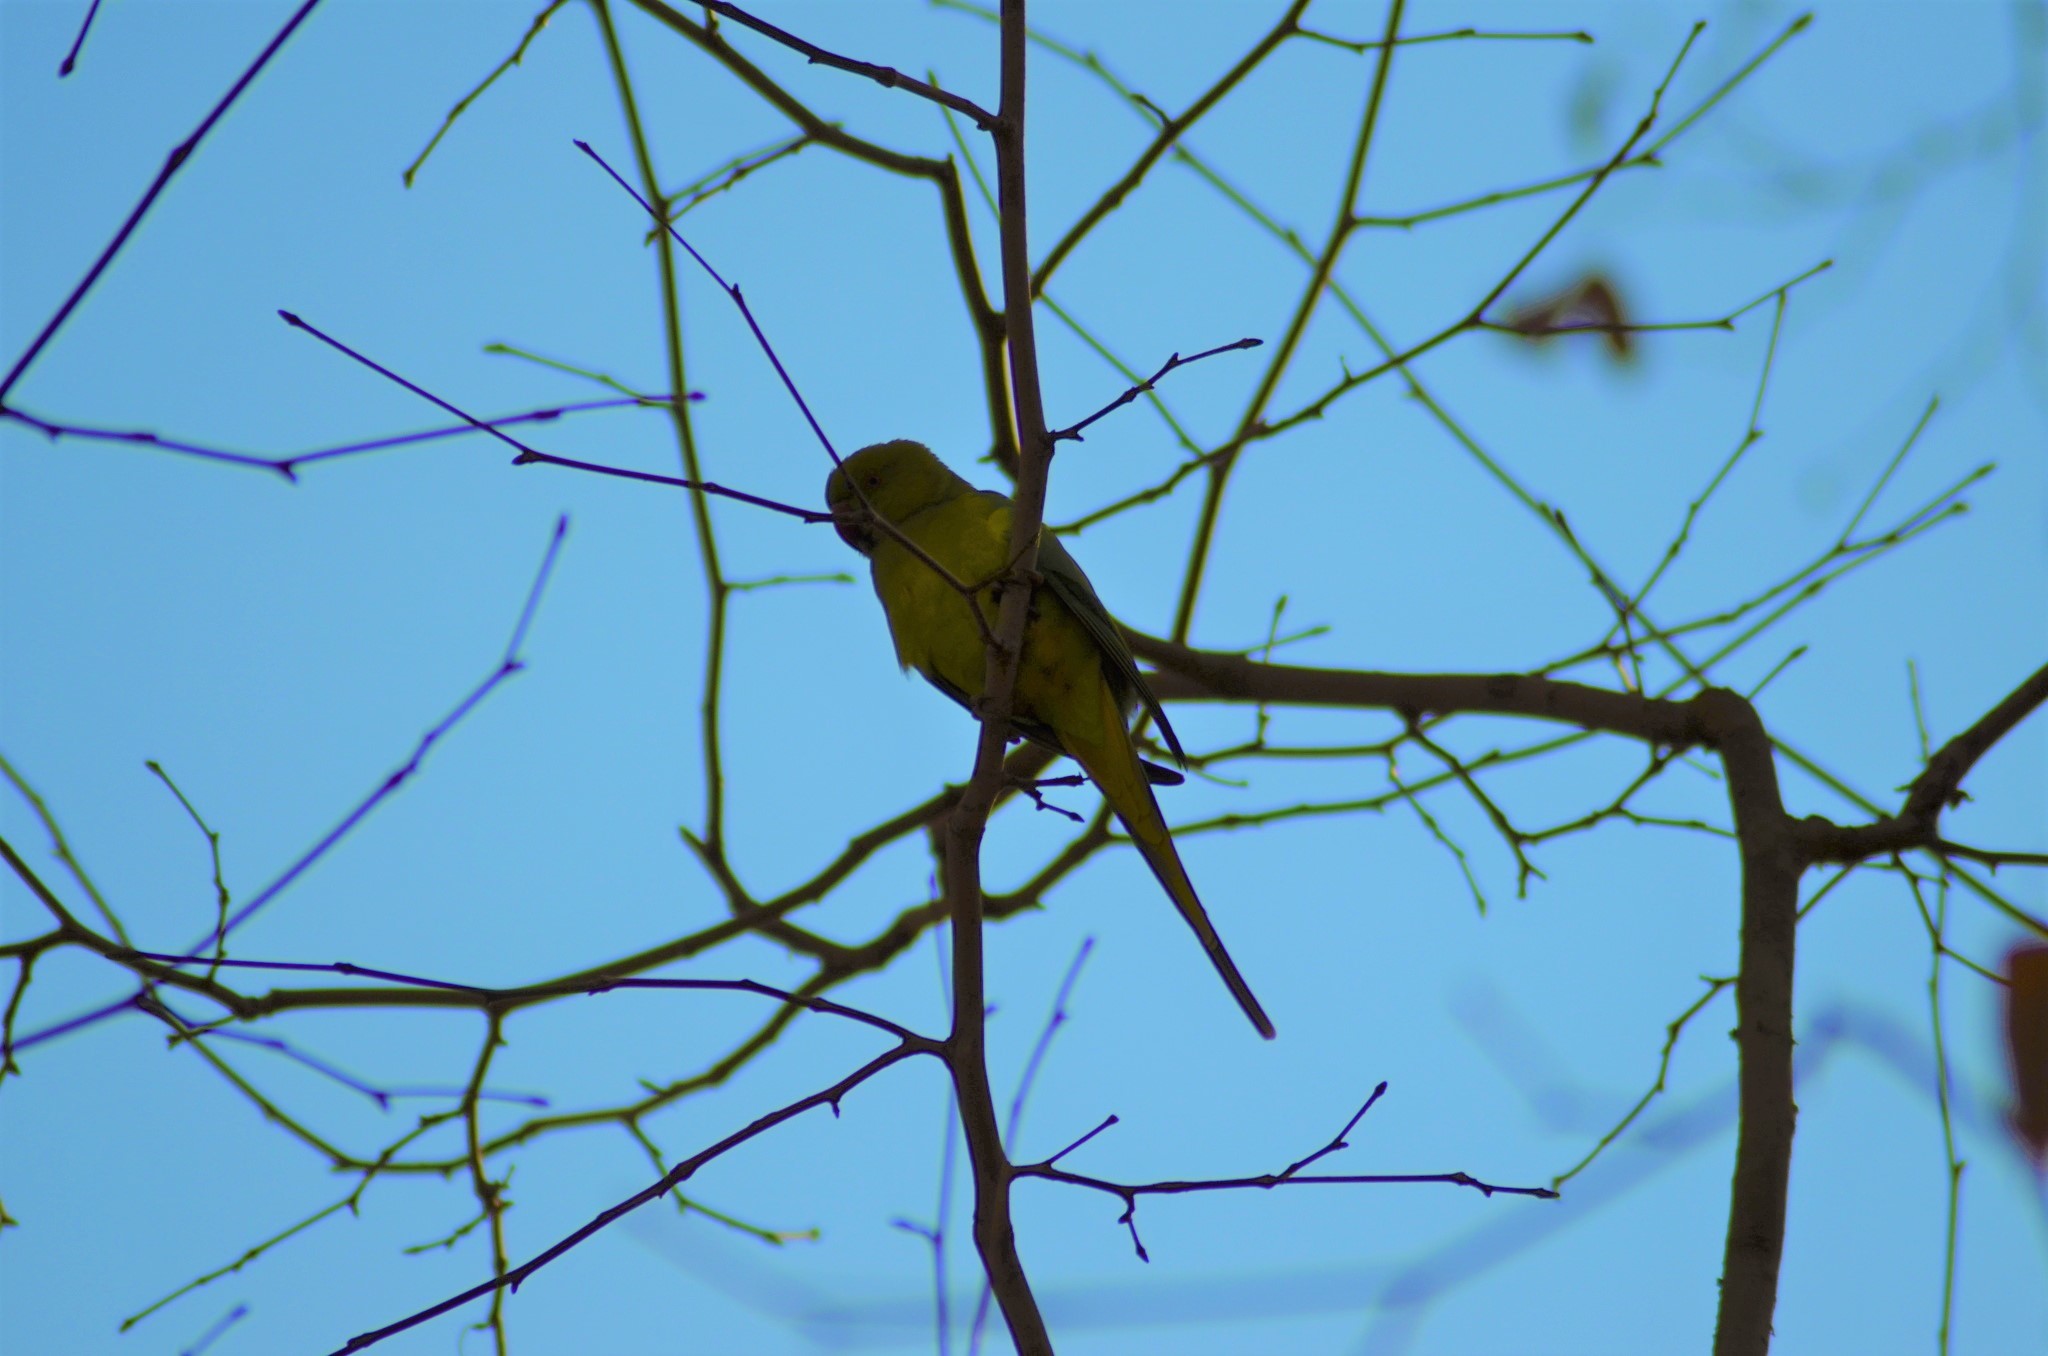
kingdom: Animalia
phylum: Chordata
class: Aves
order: Psittaciformes
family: Psittacidae
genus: Psittacula
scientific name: Psittacula krameri
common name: Rose-ringed parakeet
